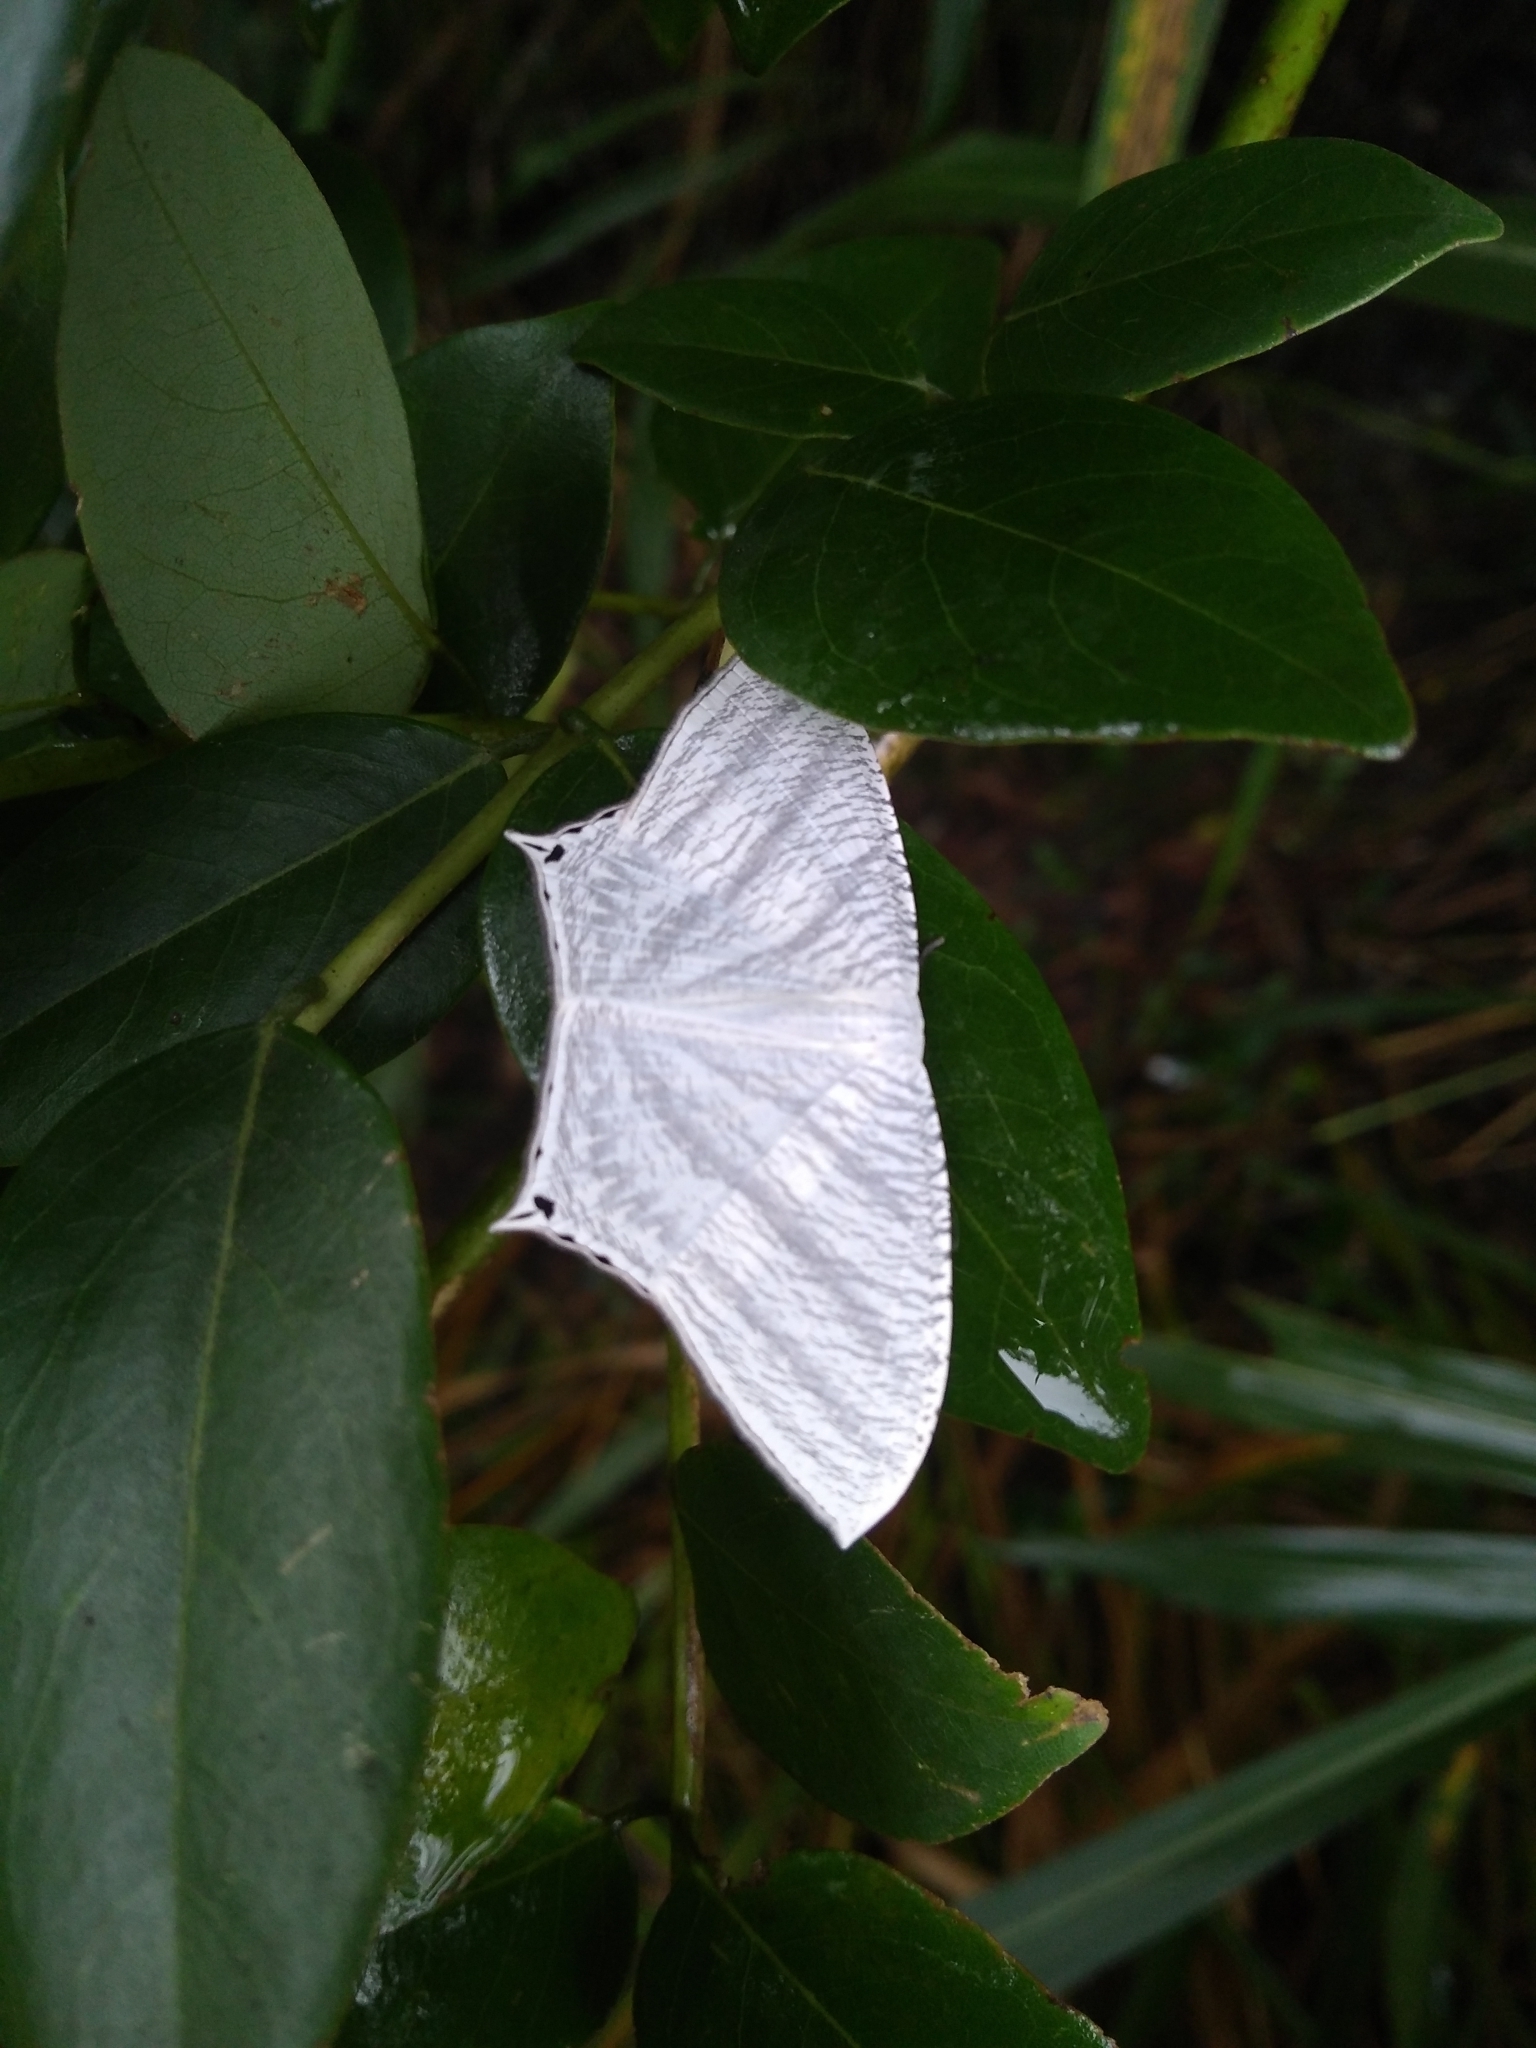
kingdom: Animalia
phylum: Arthropoda
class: Insecta
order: Lepidoptera
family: Uraniidae
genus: Micronia
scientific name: Micronia aculeata
